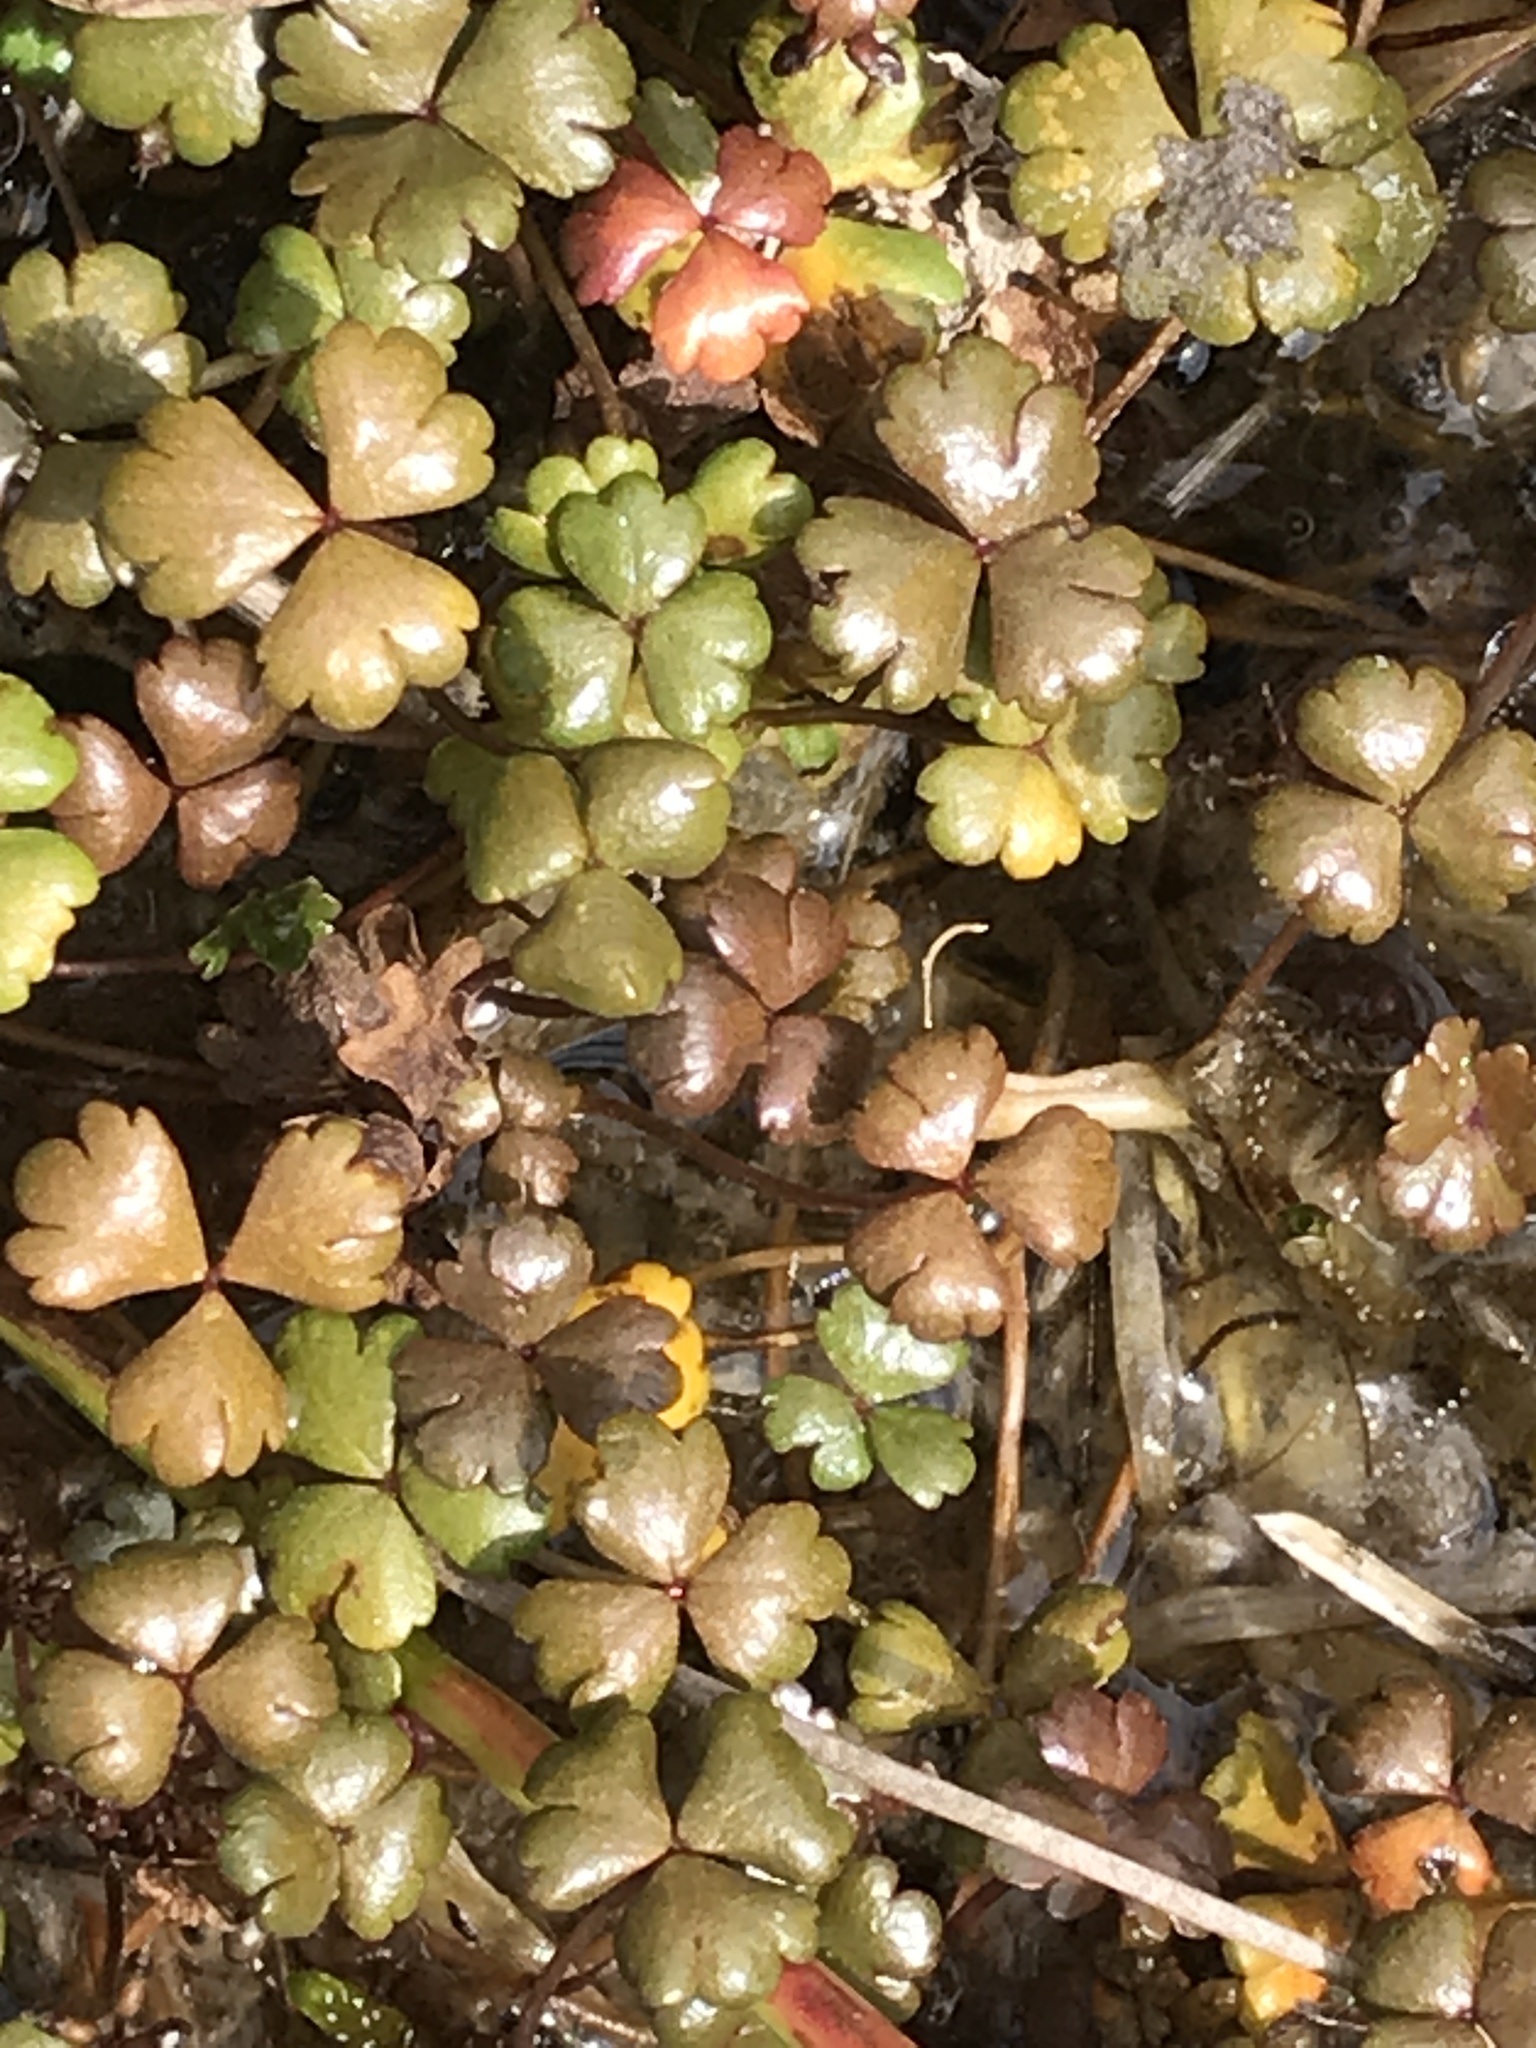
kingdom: Plantae
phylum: Tracheophyta
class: Magnoliopsida
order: Apiales
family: Araliaceae
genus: Hydrocotyle
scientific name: Hydrocotyle sulcata
